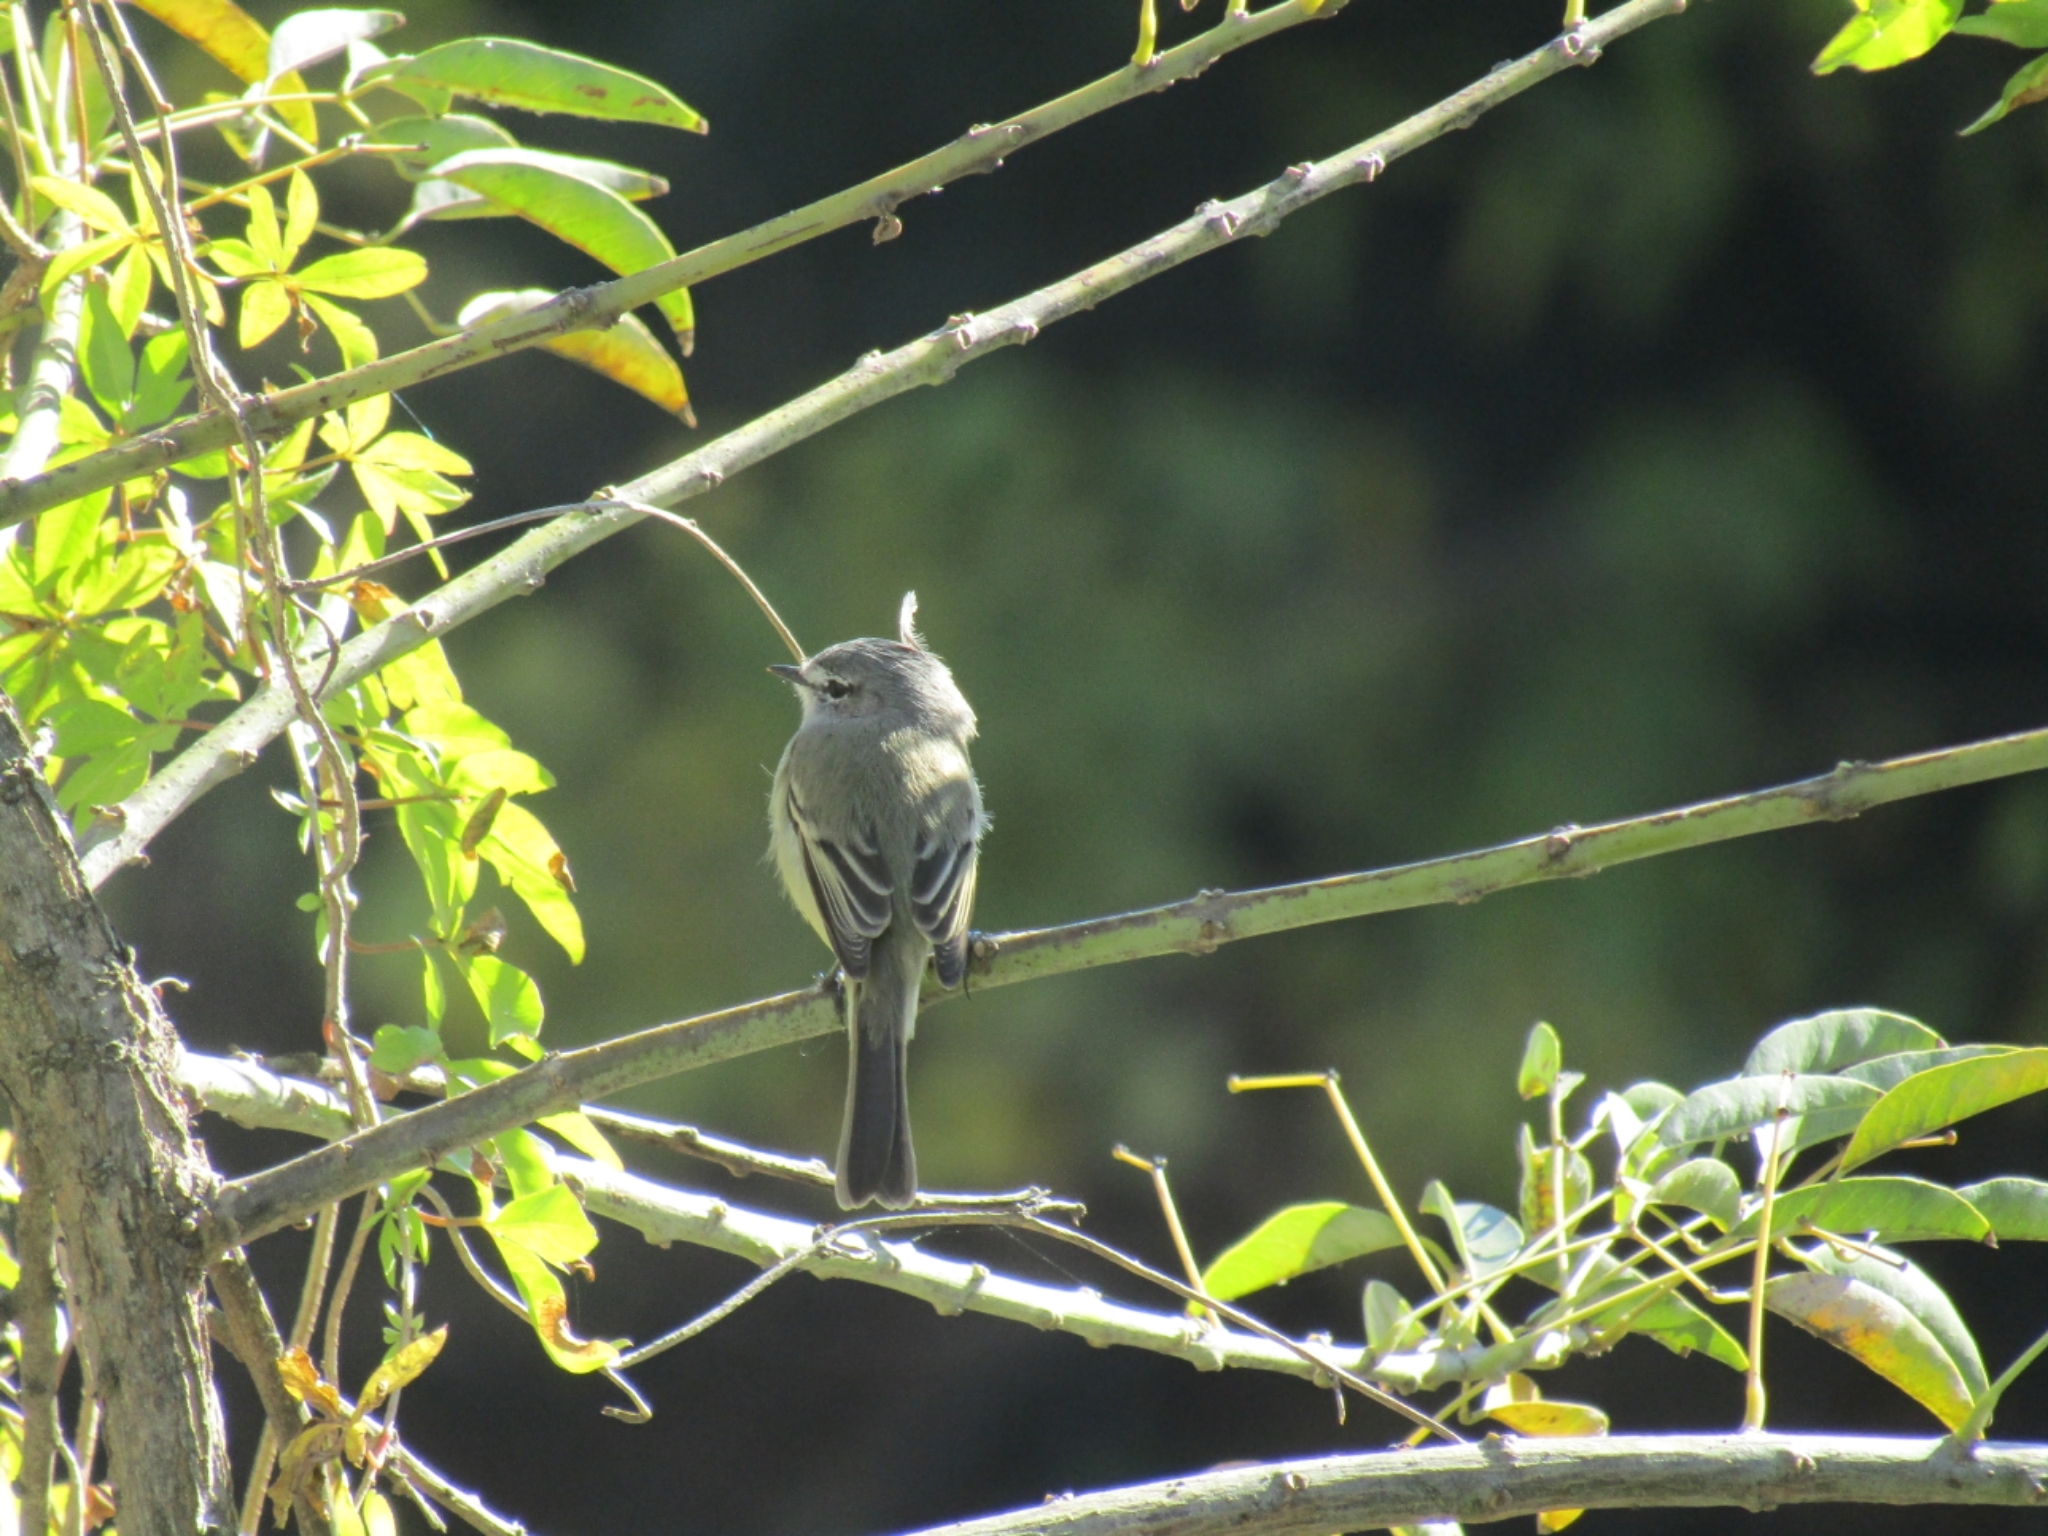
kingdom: Animalia
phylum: Chordata
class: Aves
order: Passeriformes
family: Tyrannidae
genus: Serpophaga
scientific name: Serpophaga subcristata
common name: White-crested tyrannulet
